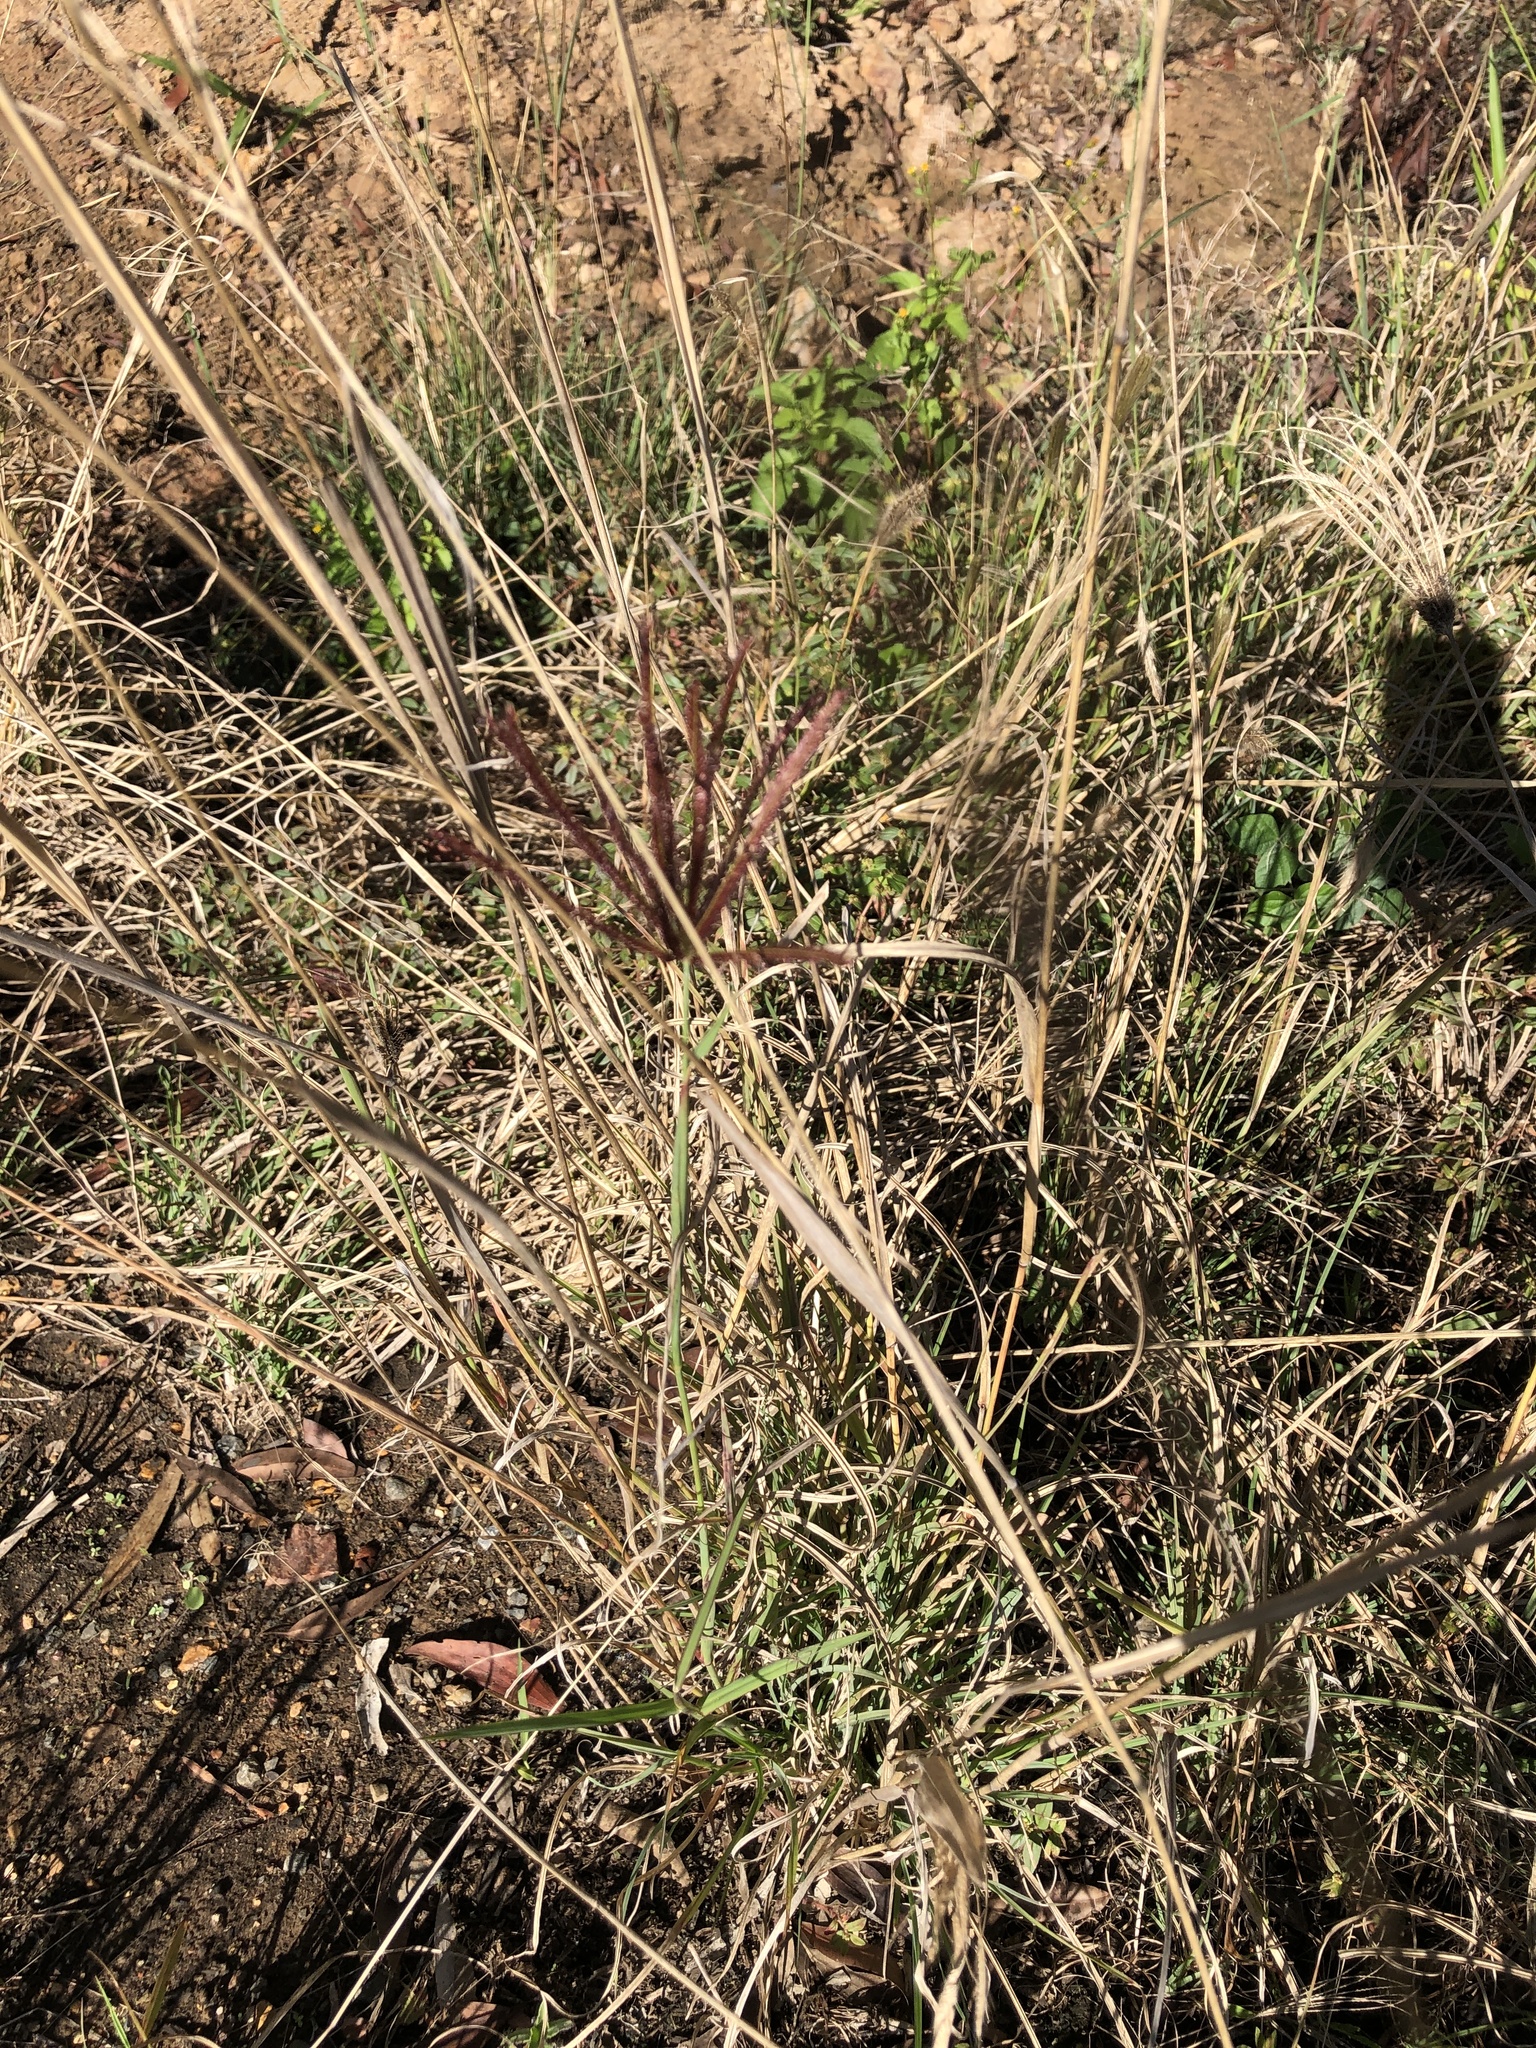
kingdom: Plantae
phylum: Tracheophyta
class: Liliopsida
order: Poales
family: Poaceae
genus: Chloris
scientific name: Chloris barbata
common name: Swollen fingergrass
